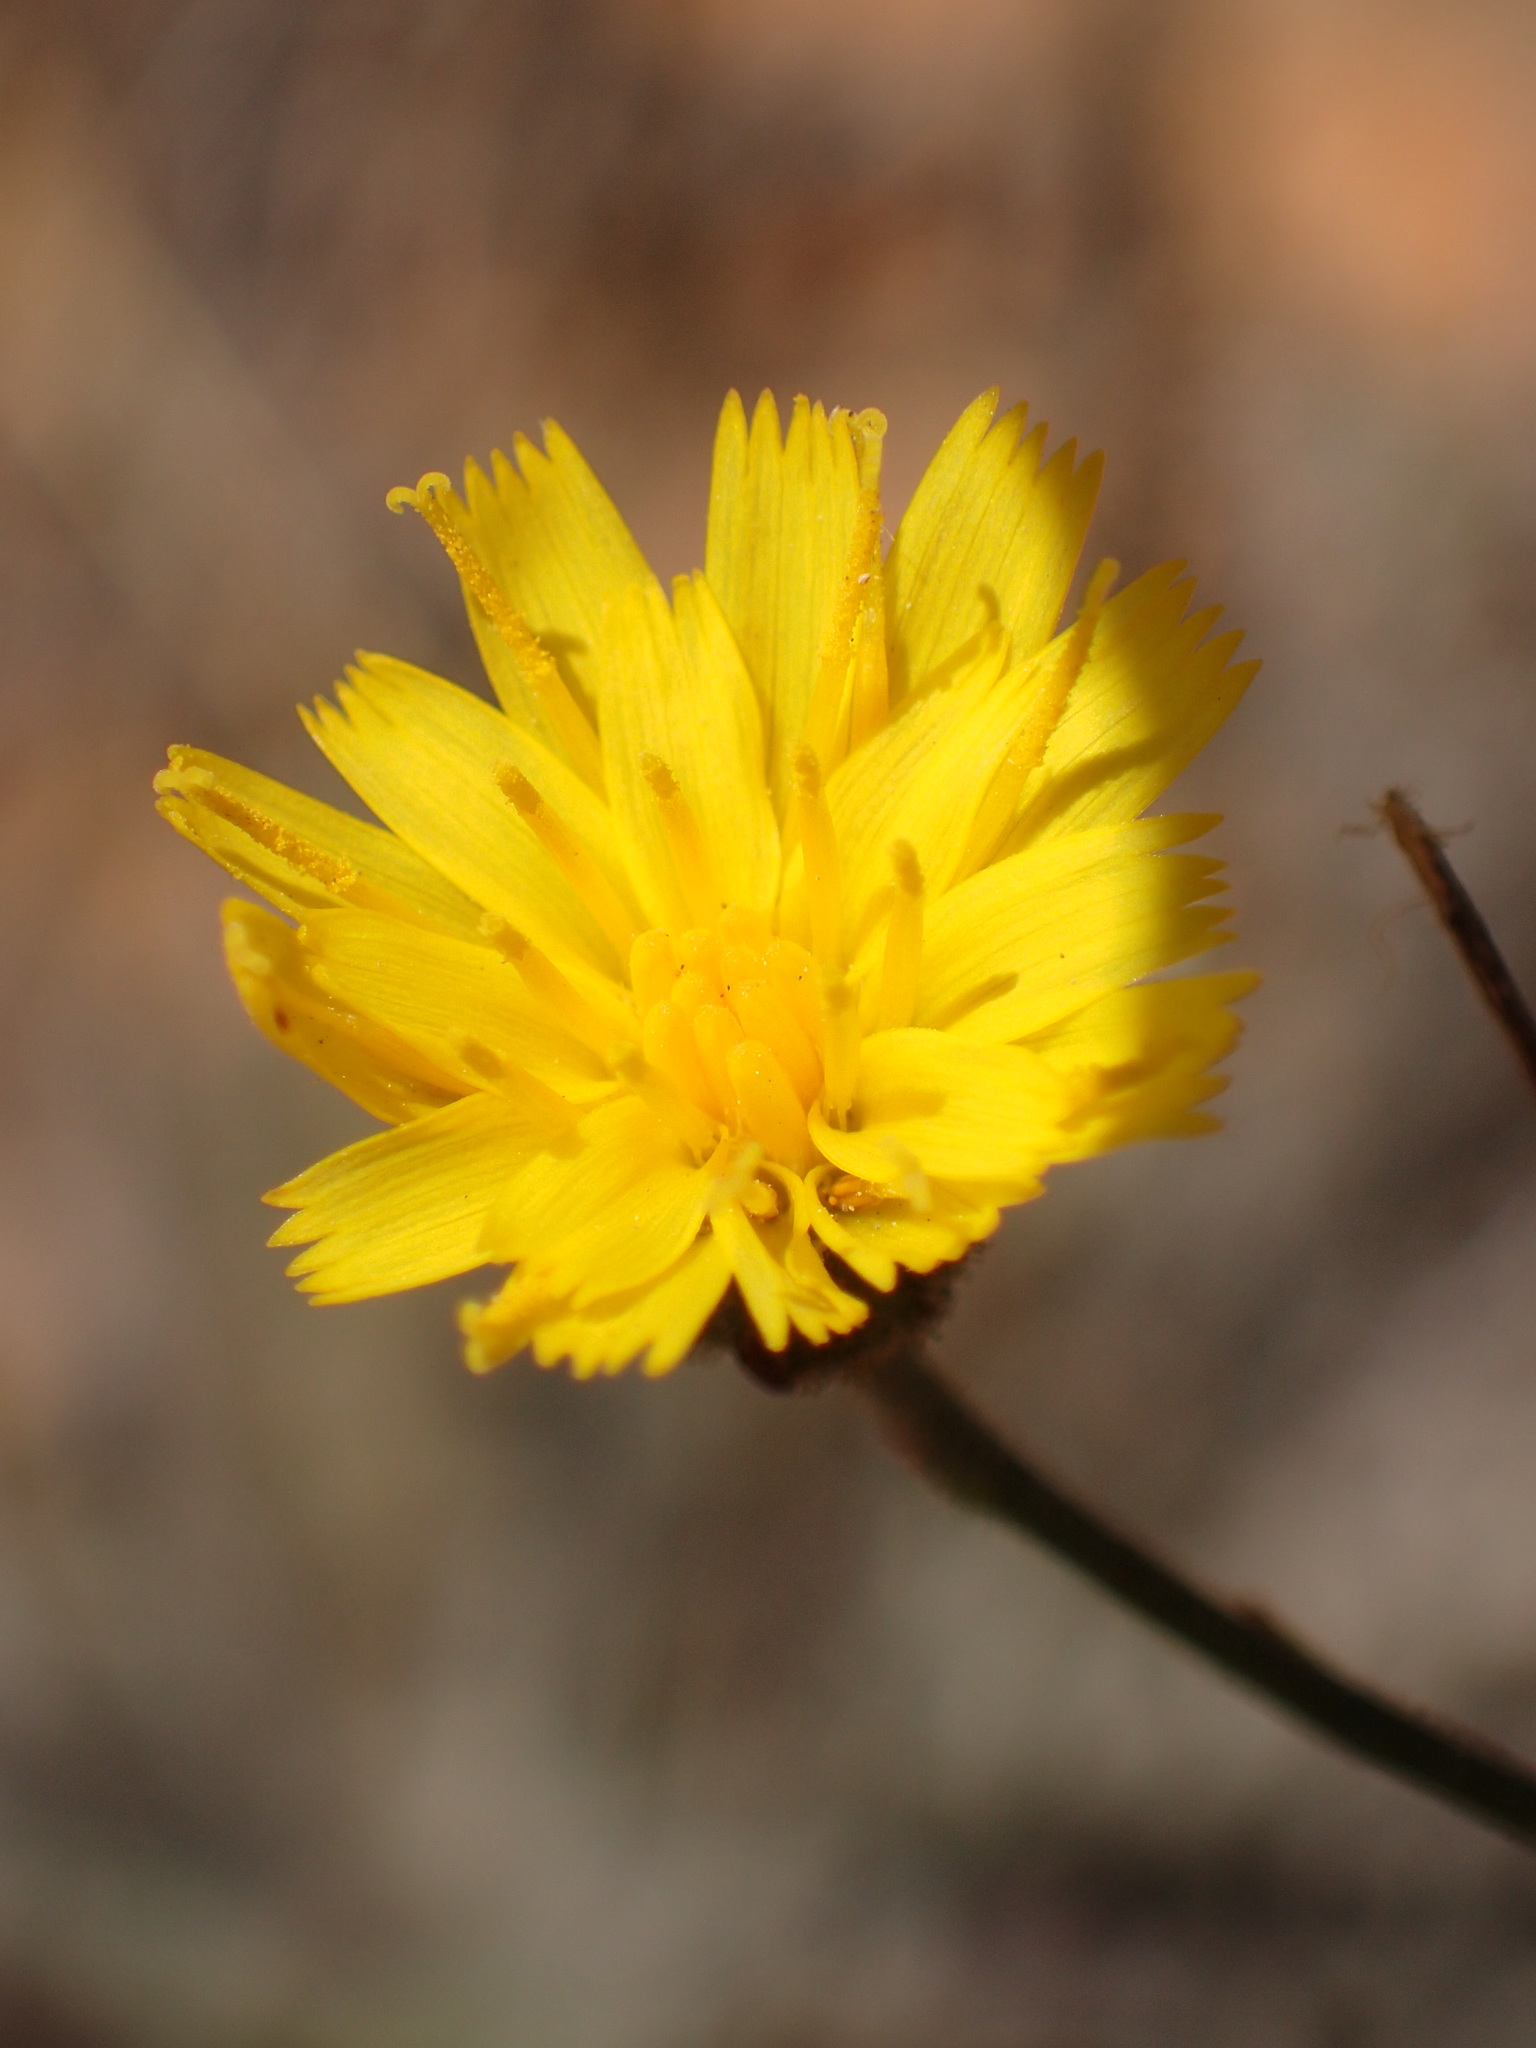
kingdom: Plantae
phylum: Tracheophyta
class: Magnoliopsida
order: Asterales
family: Asteraceae
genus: Hieracium
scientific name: Hieracium argutum
